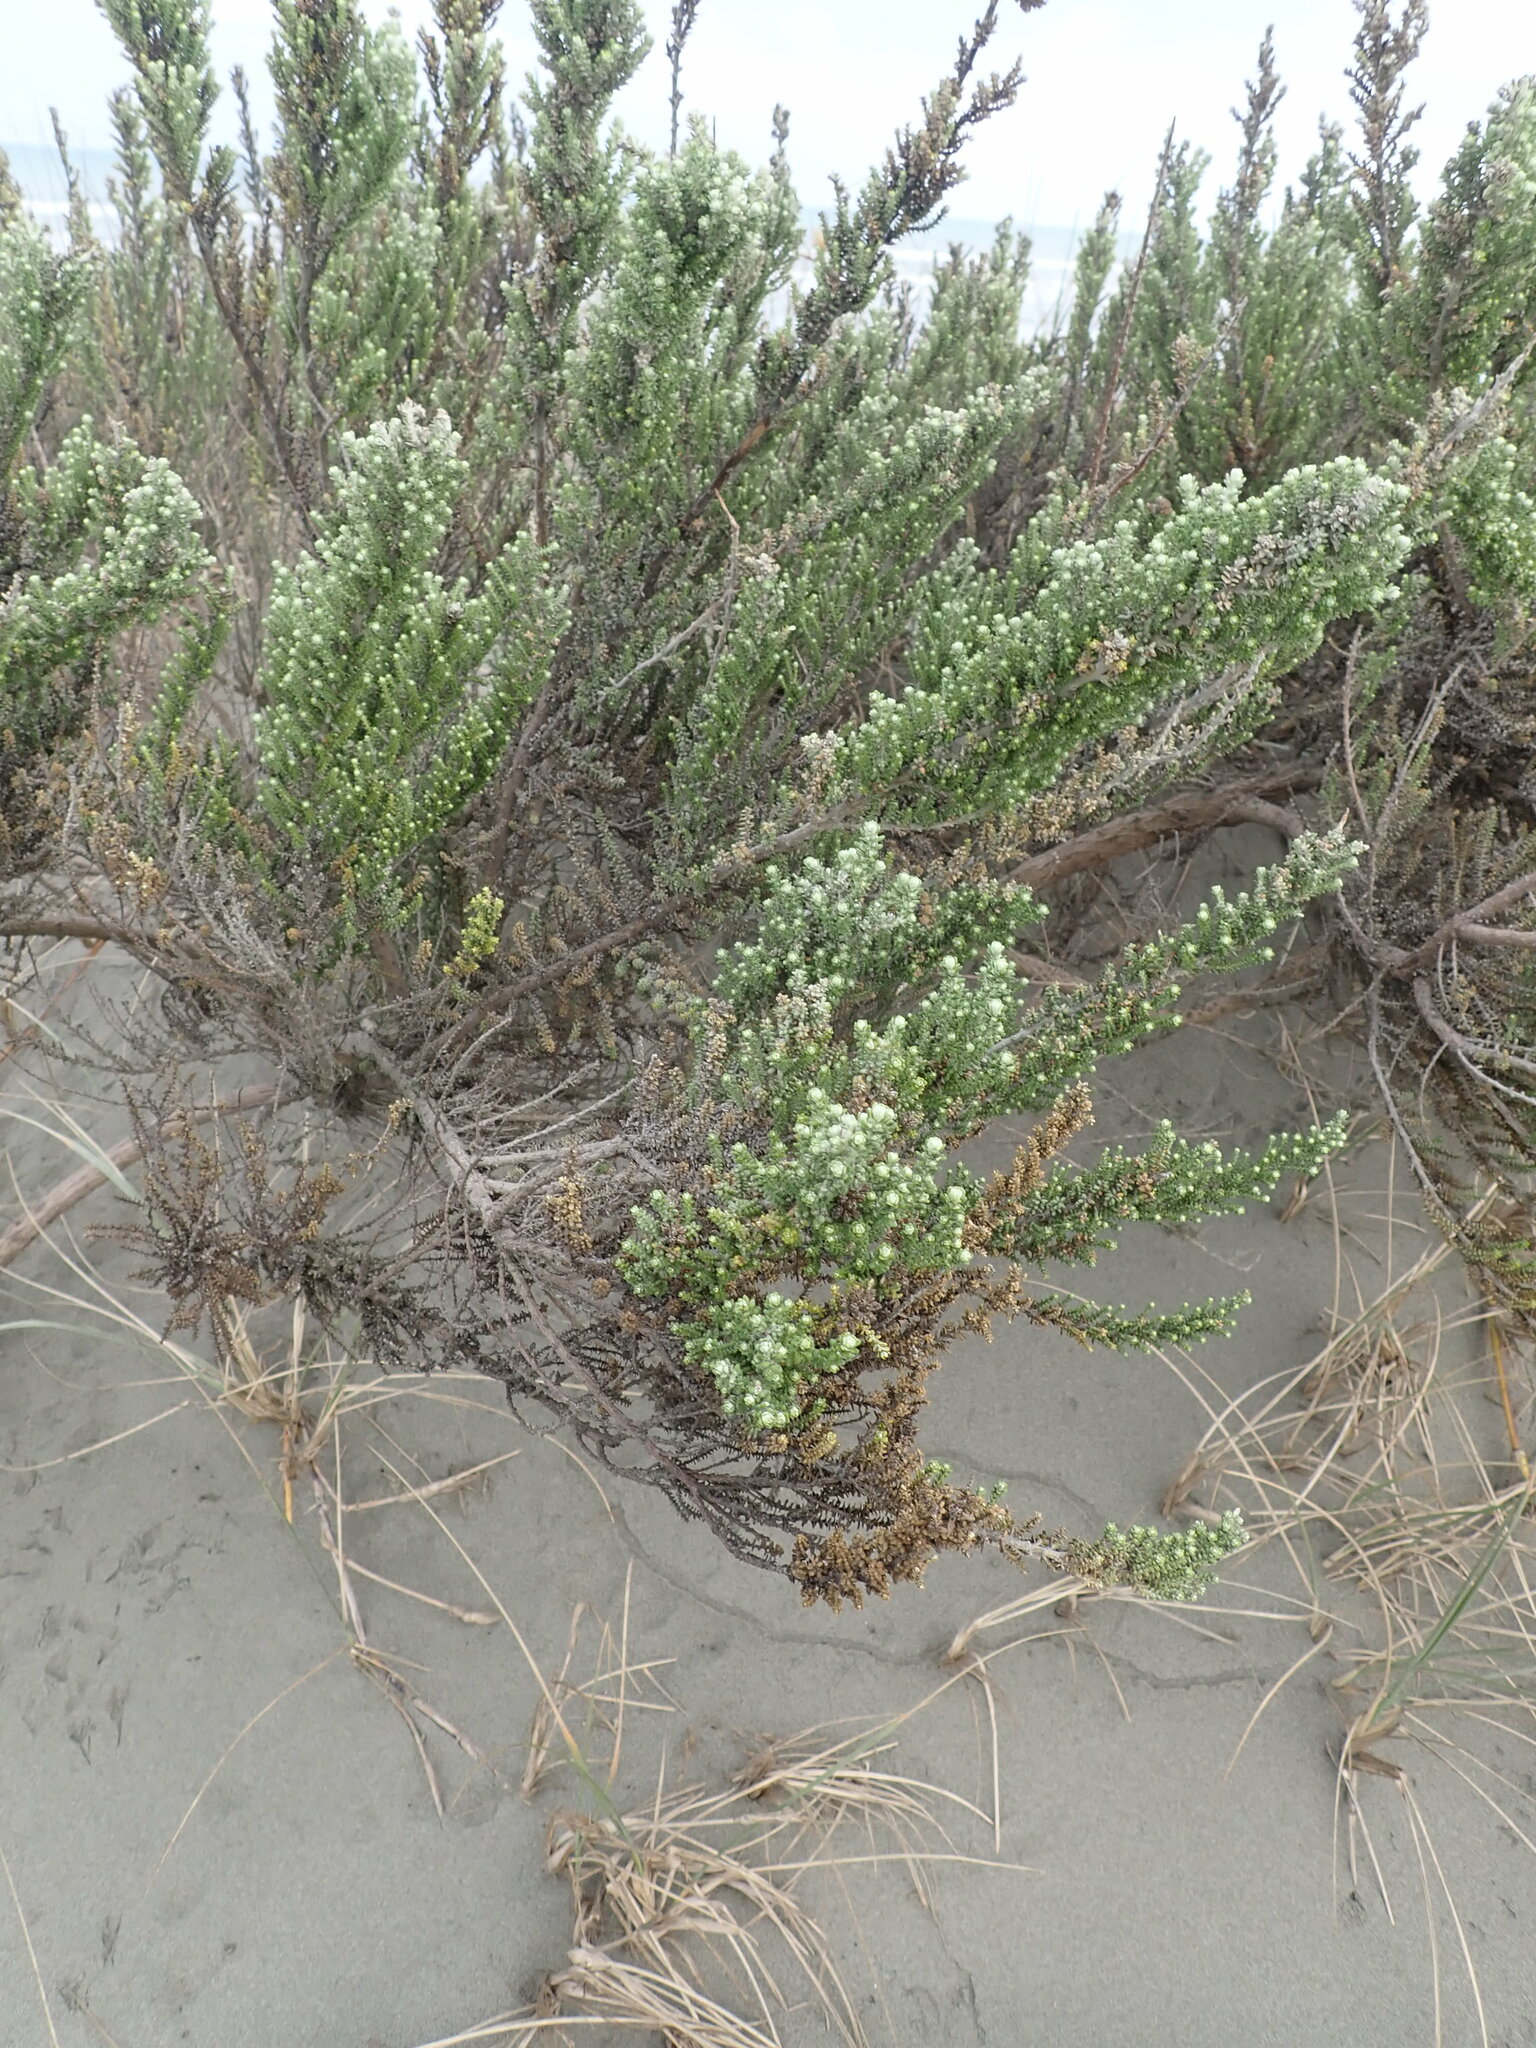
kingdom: Plantae
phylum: Tracheophyta
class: Magnoliopsida
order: Asterales
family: Asteraceae
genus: Ozothamnus
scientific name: Ozothamnus leptophyllus
